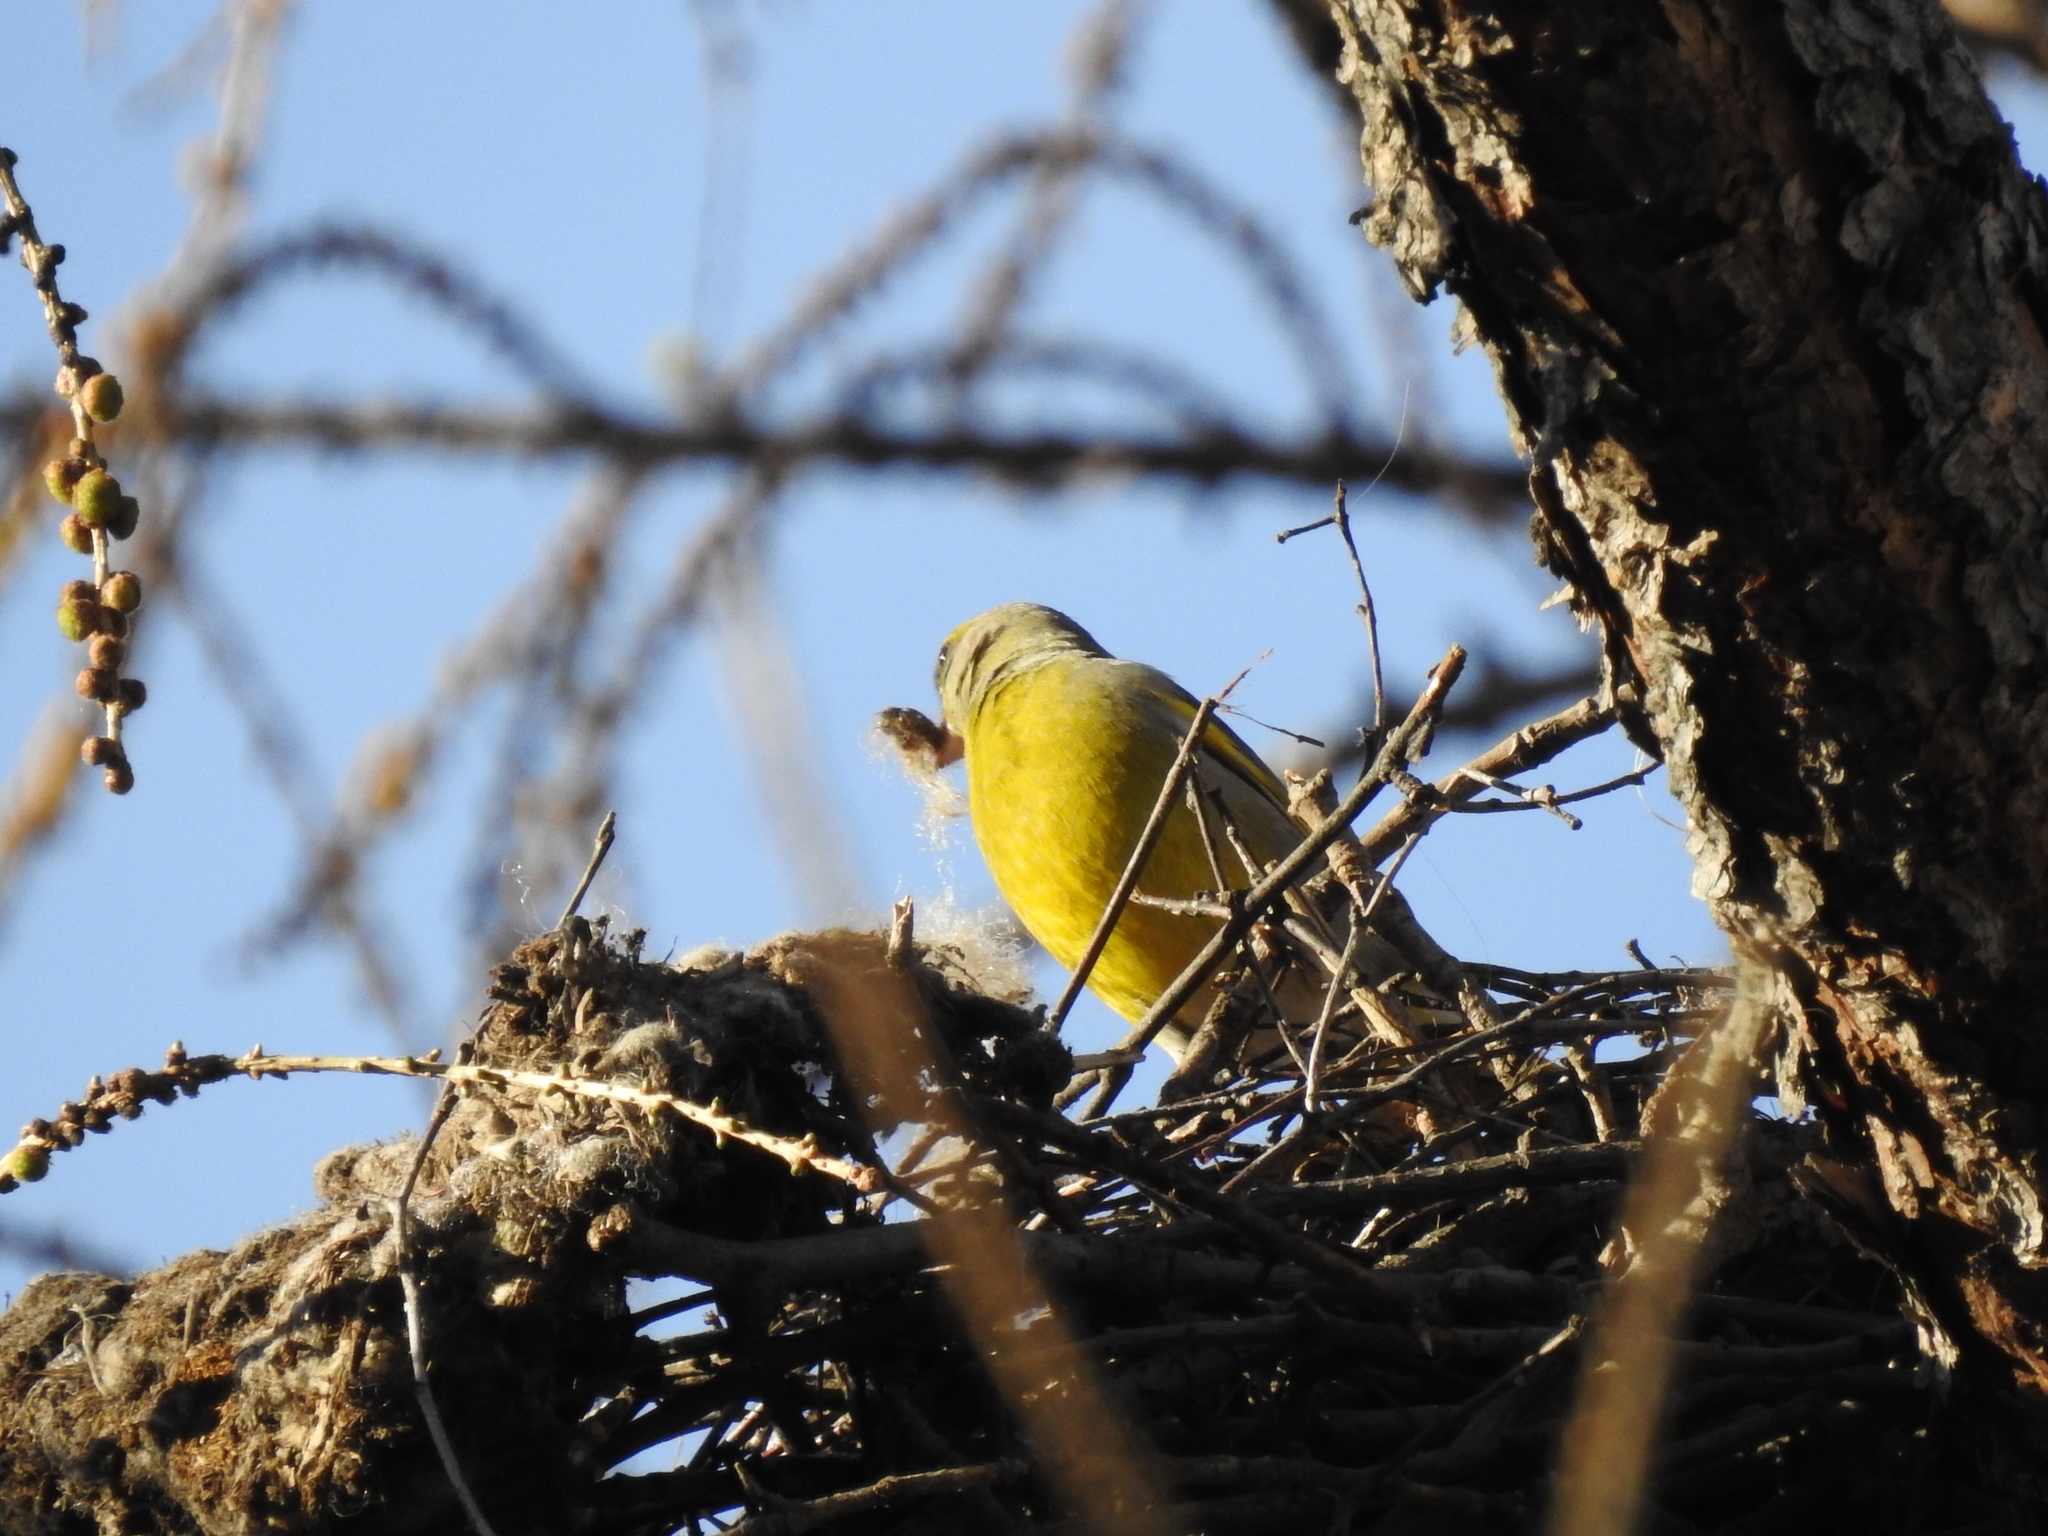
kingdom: Plantae
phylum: Tracheophyta
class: Liliopsida
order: Poales
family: Poaceae
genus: Chloris
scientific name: Chloris chloris
